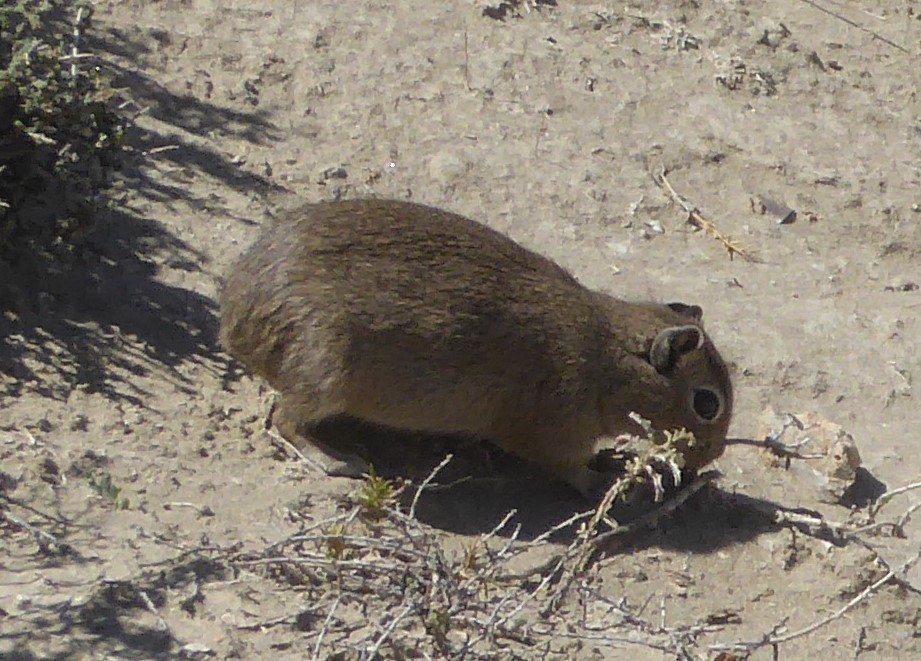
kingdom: Animalia
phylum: Chordata
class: Mammalia
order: Rodentia
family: Caviidae
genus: Microcavia
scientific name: Microcavia australis
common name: Southern mountain cavy
